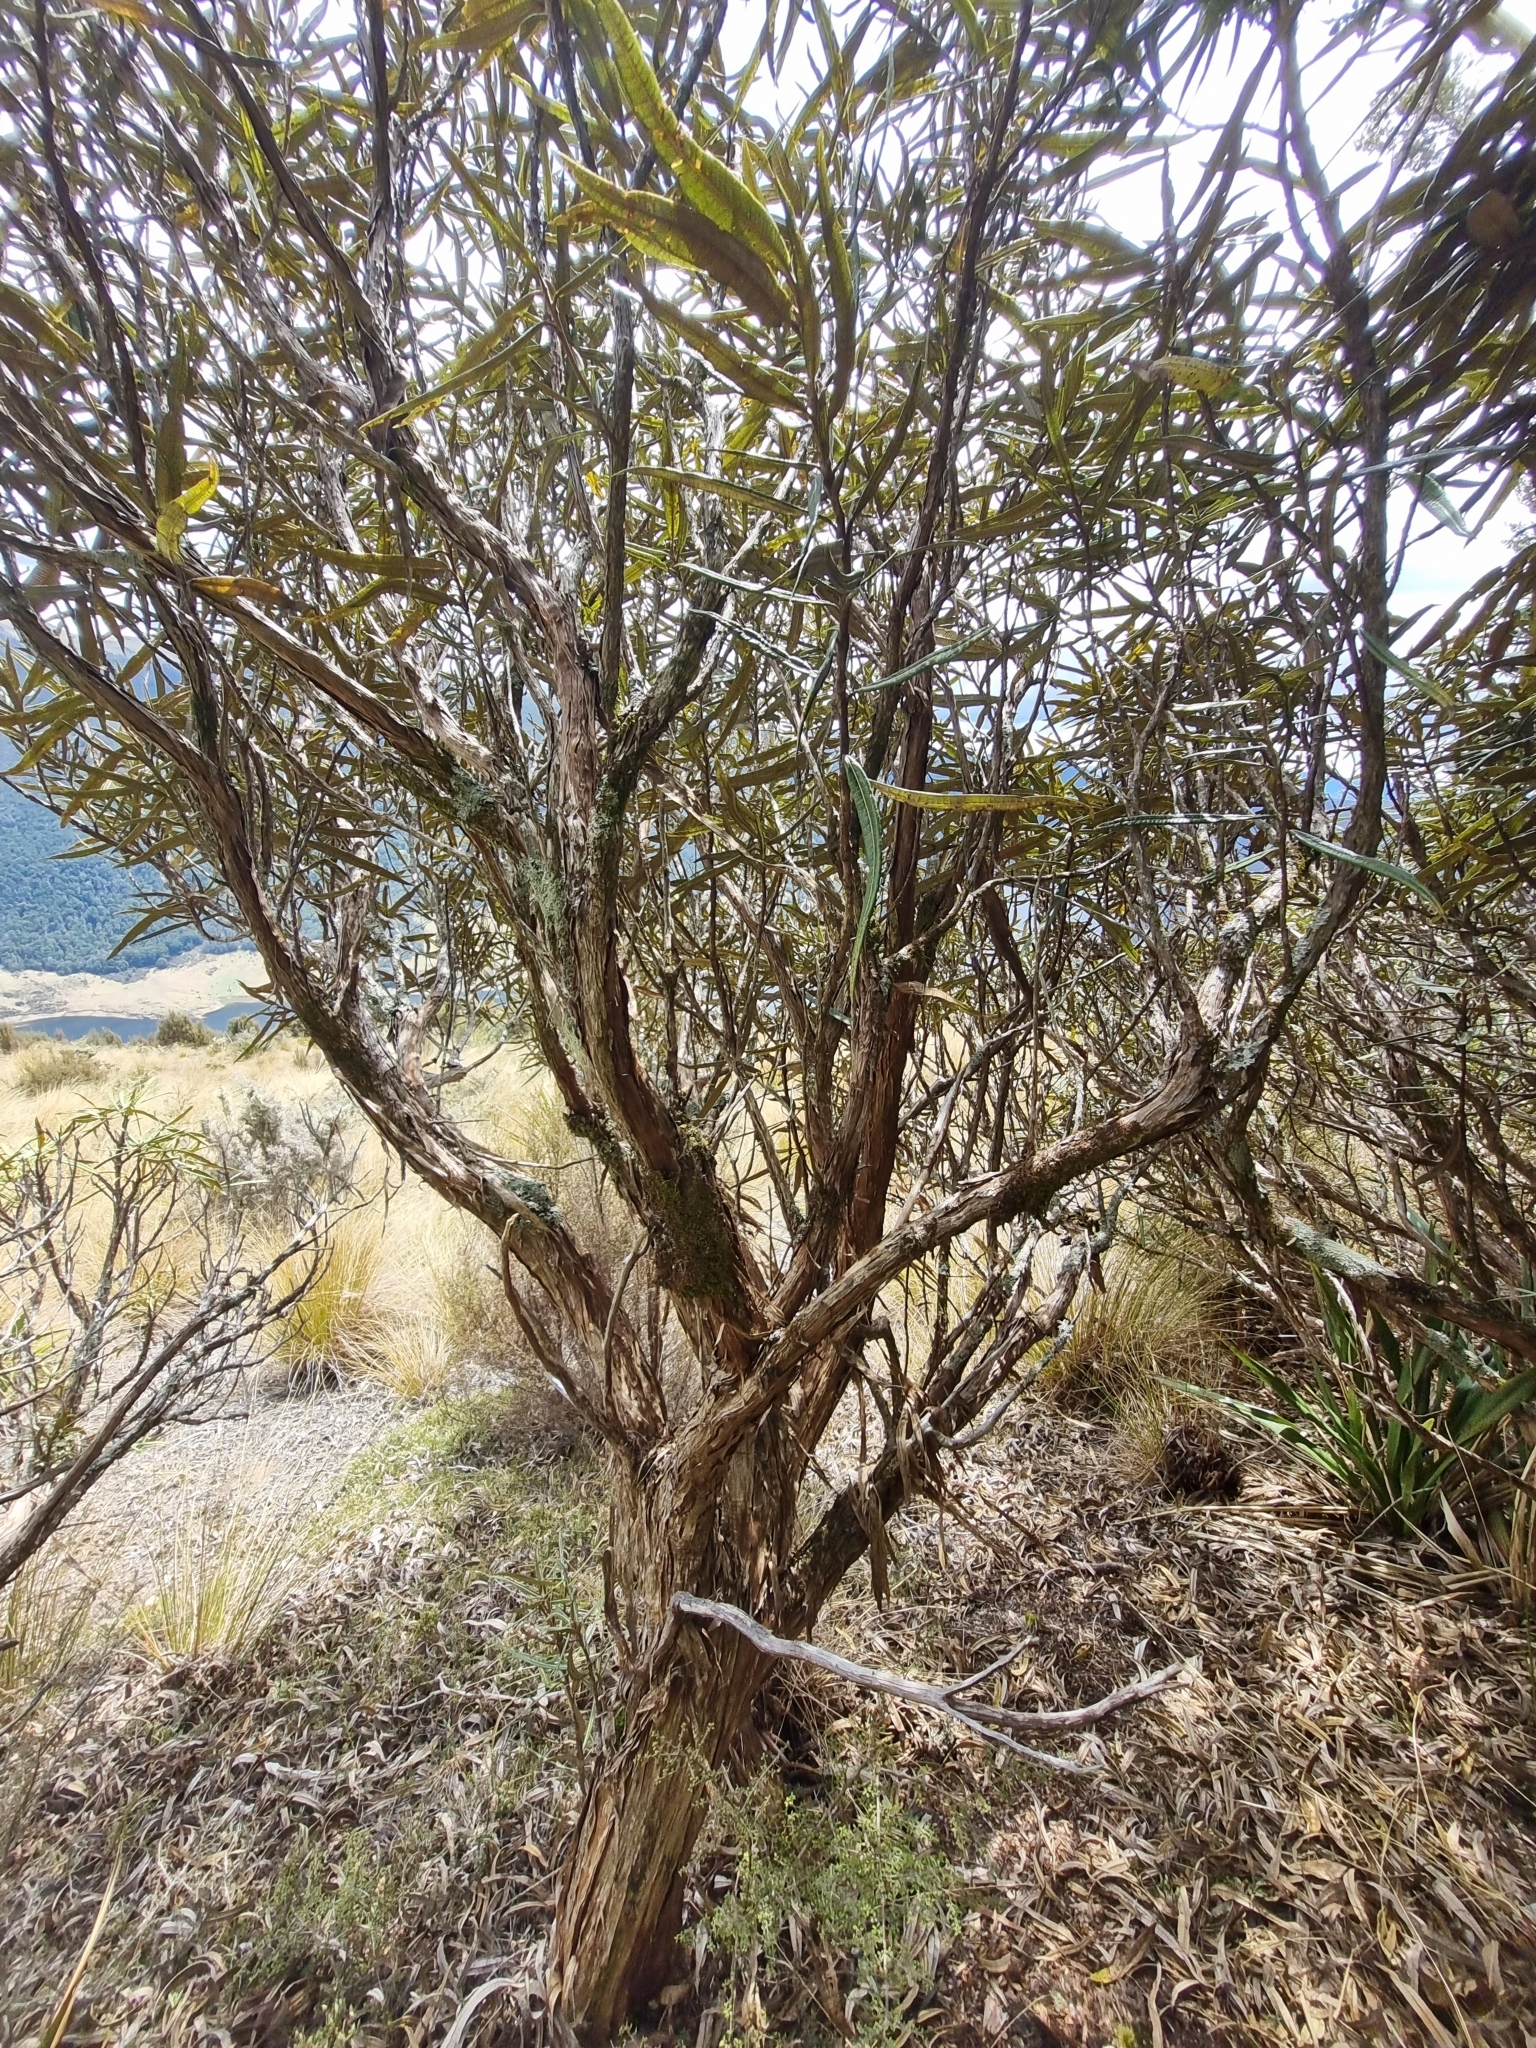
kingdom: Plantae
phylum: Tracheophyta
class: Magnoliopsida
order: Asterales
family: Asteraceae
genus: Olearia
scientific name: Olearia lacunosa
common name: Lancewood tree daisy
